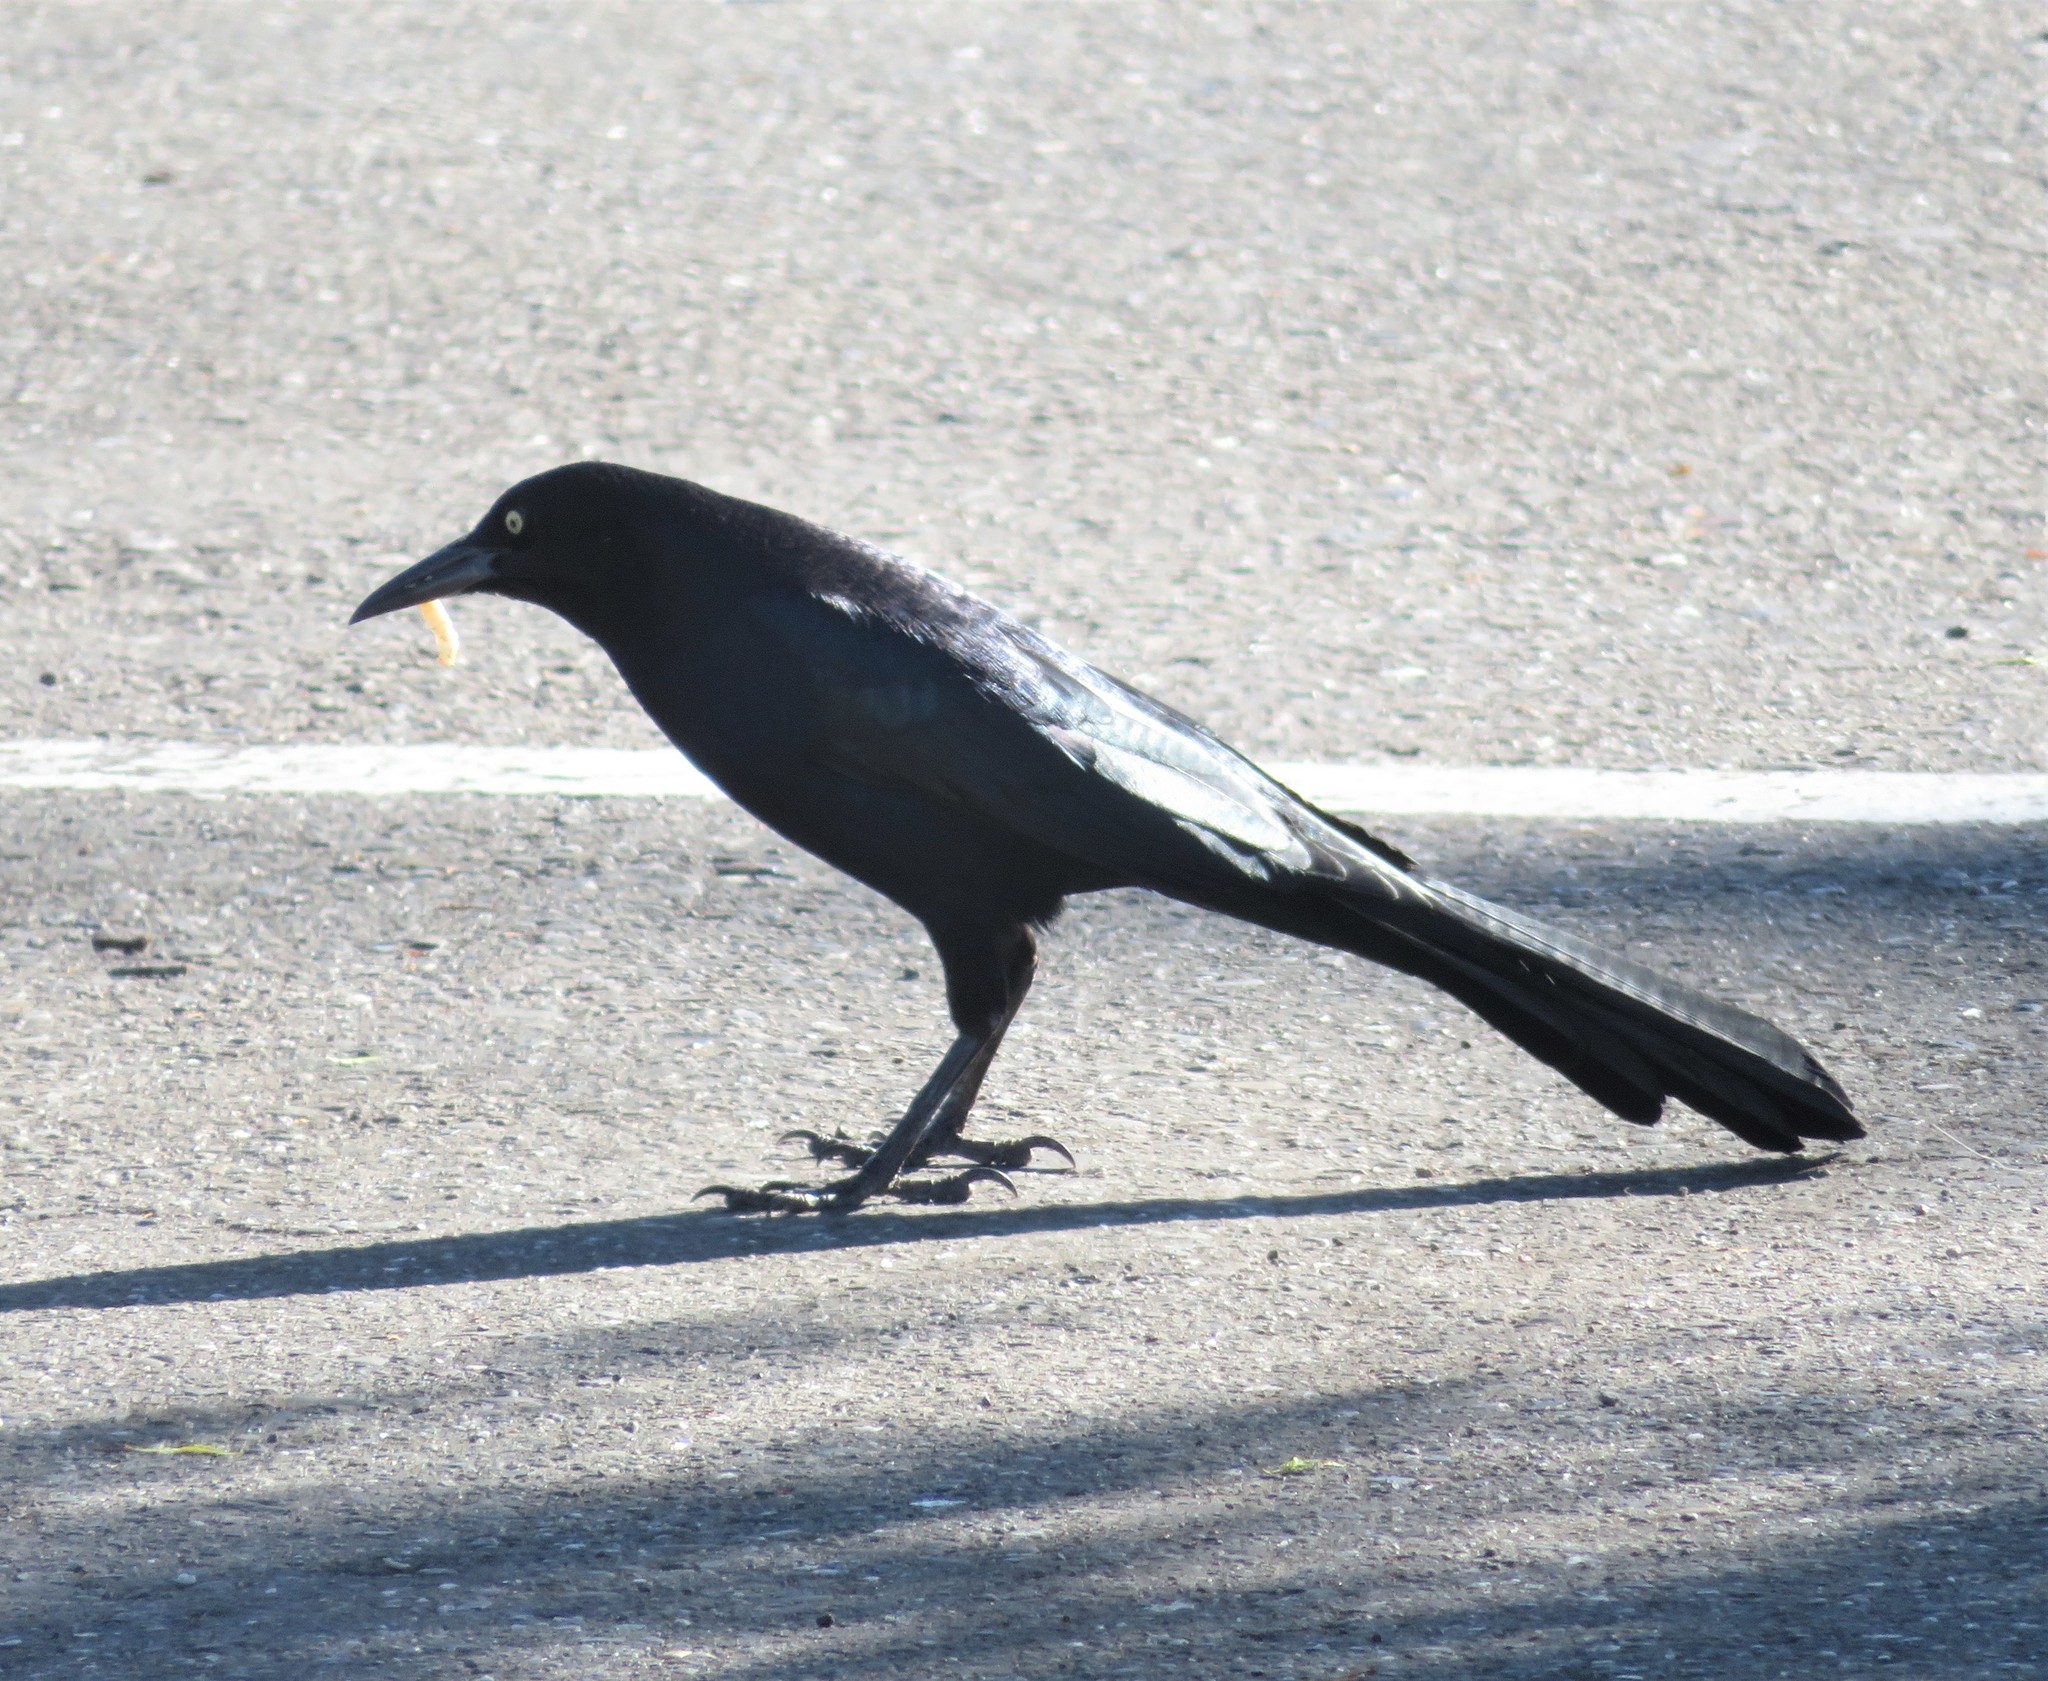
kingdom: Animalia
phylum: Chordata
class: Aves
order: Passeriformes
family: Icteridae
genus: Quiscalus
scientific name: Quiscalus mexicanus
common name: Great-tailed grackle
